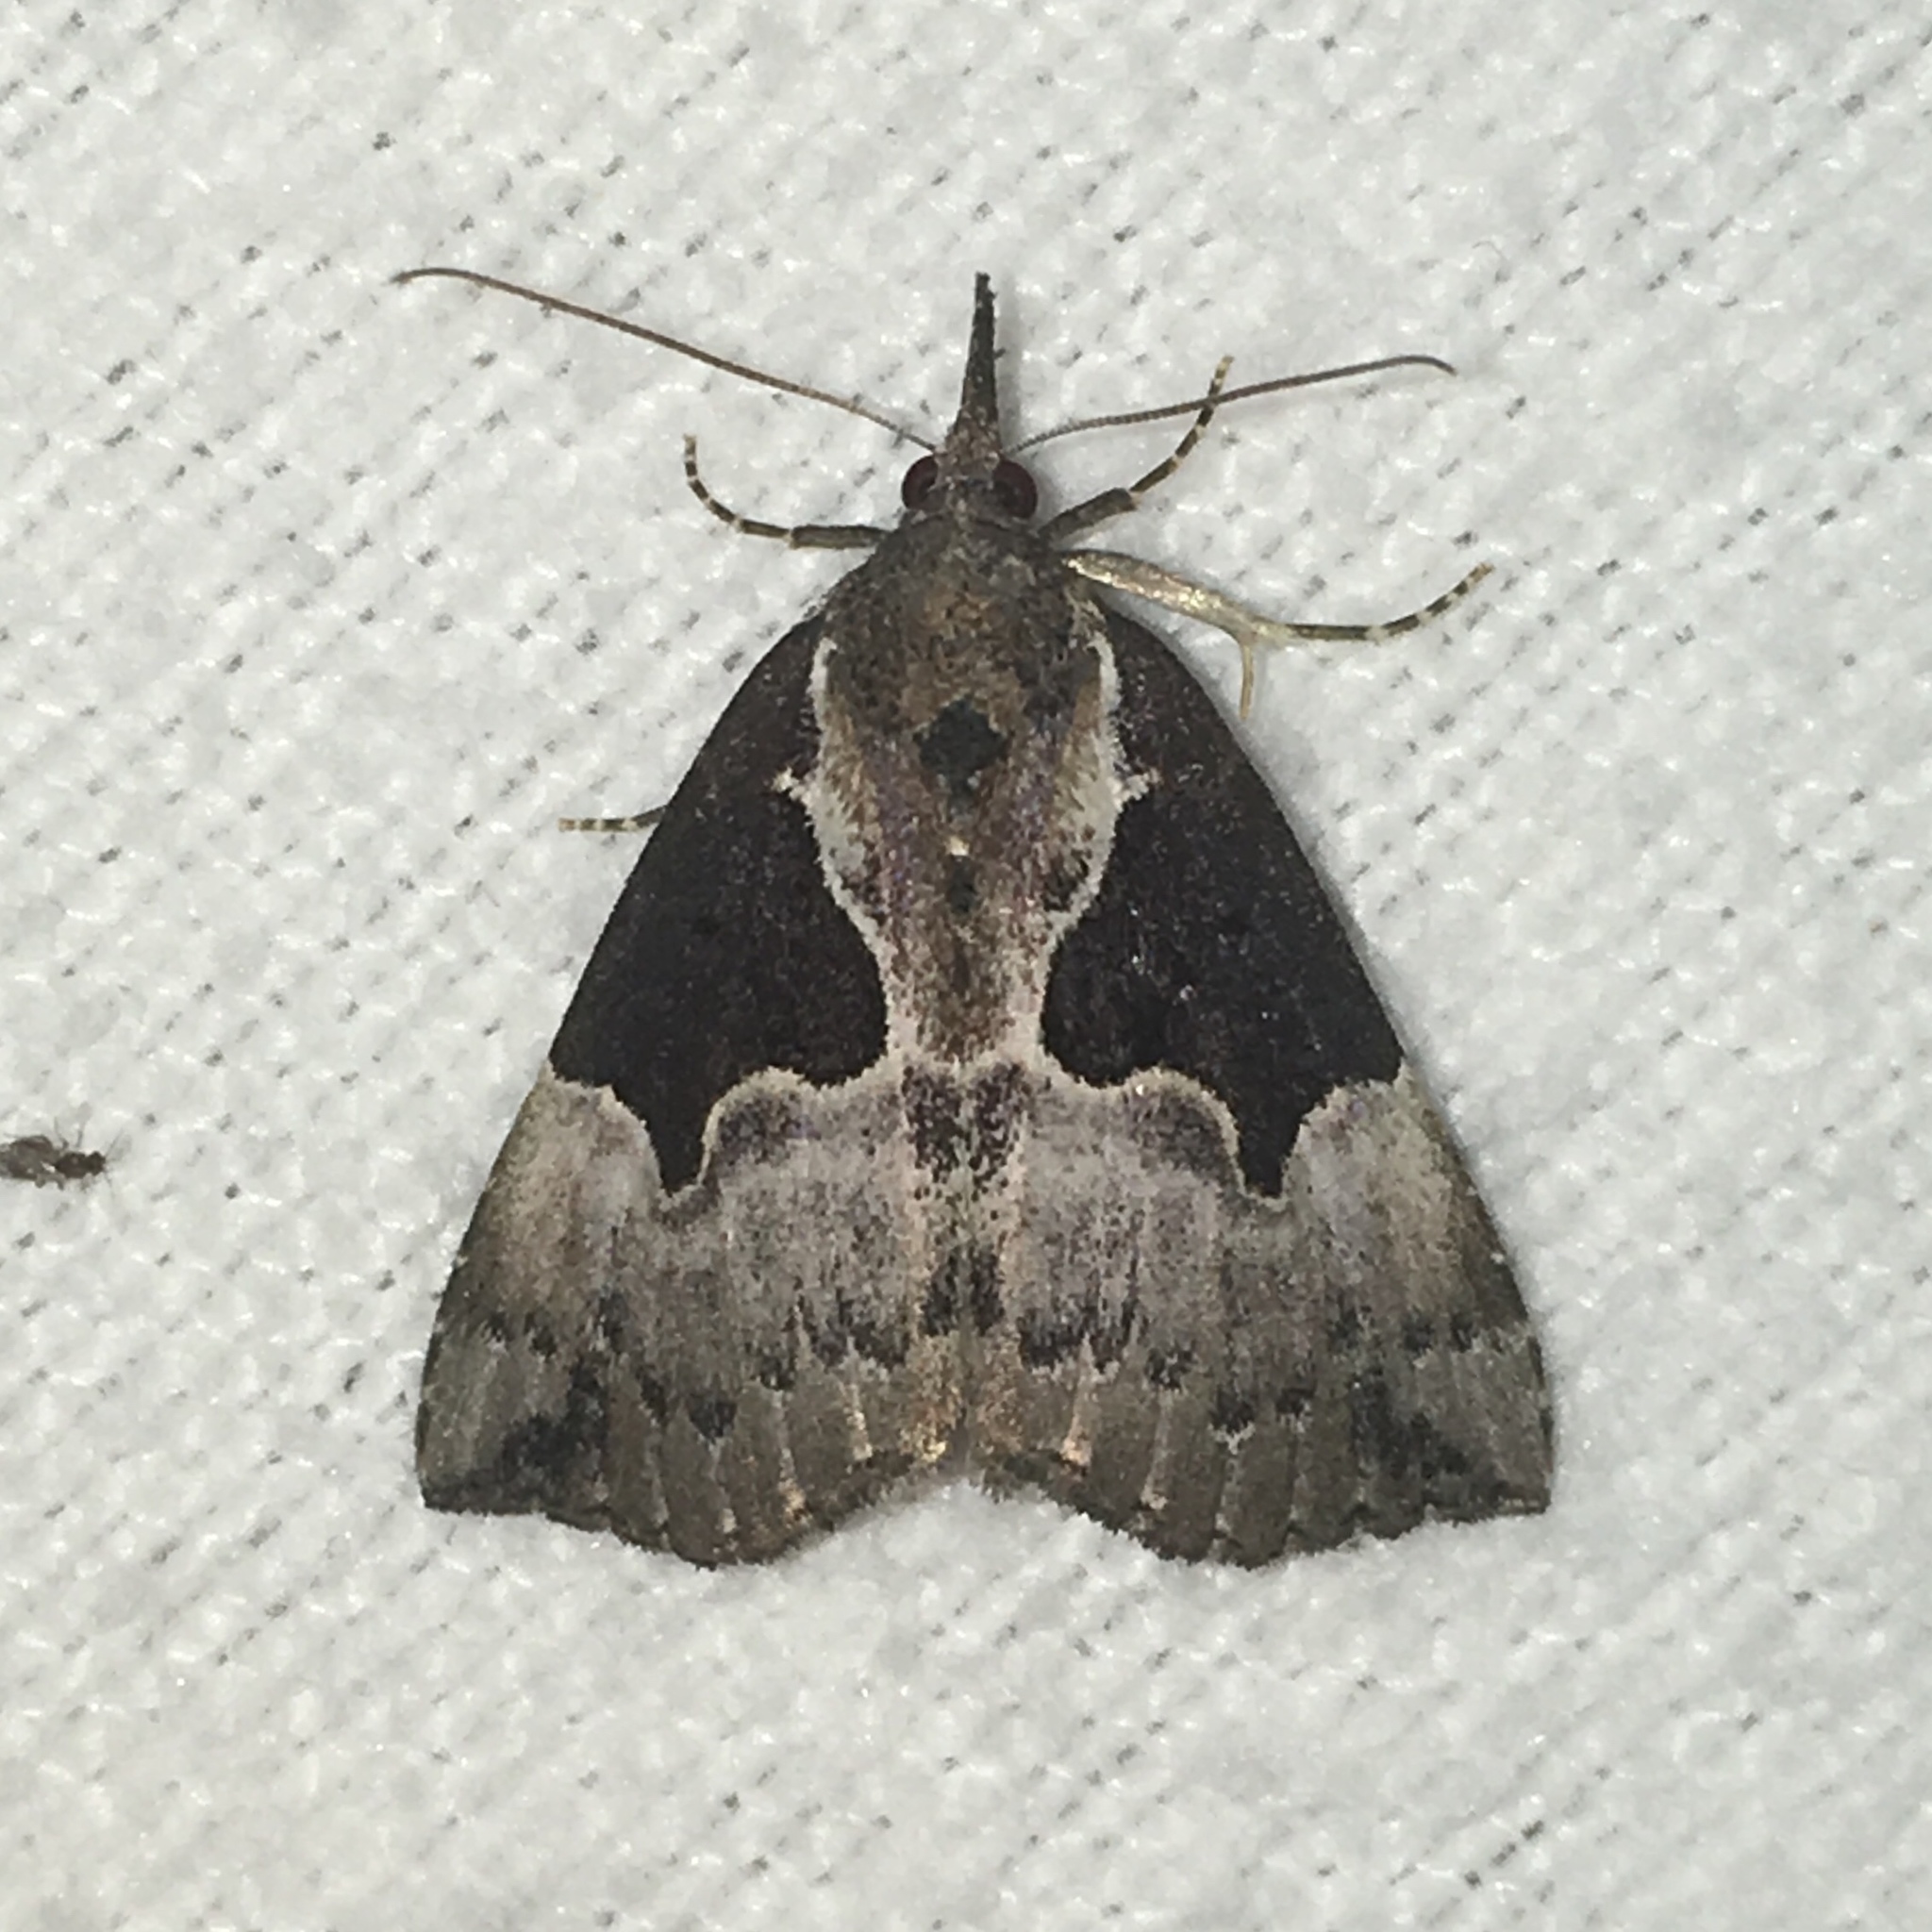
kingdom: Animalia
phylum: Arthropoda
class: Insecta
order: Lepidoptera
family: Erebidae
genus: Hypena
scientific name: Hypena bijugalis
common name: Dimorphic bomolocha moth
